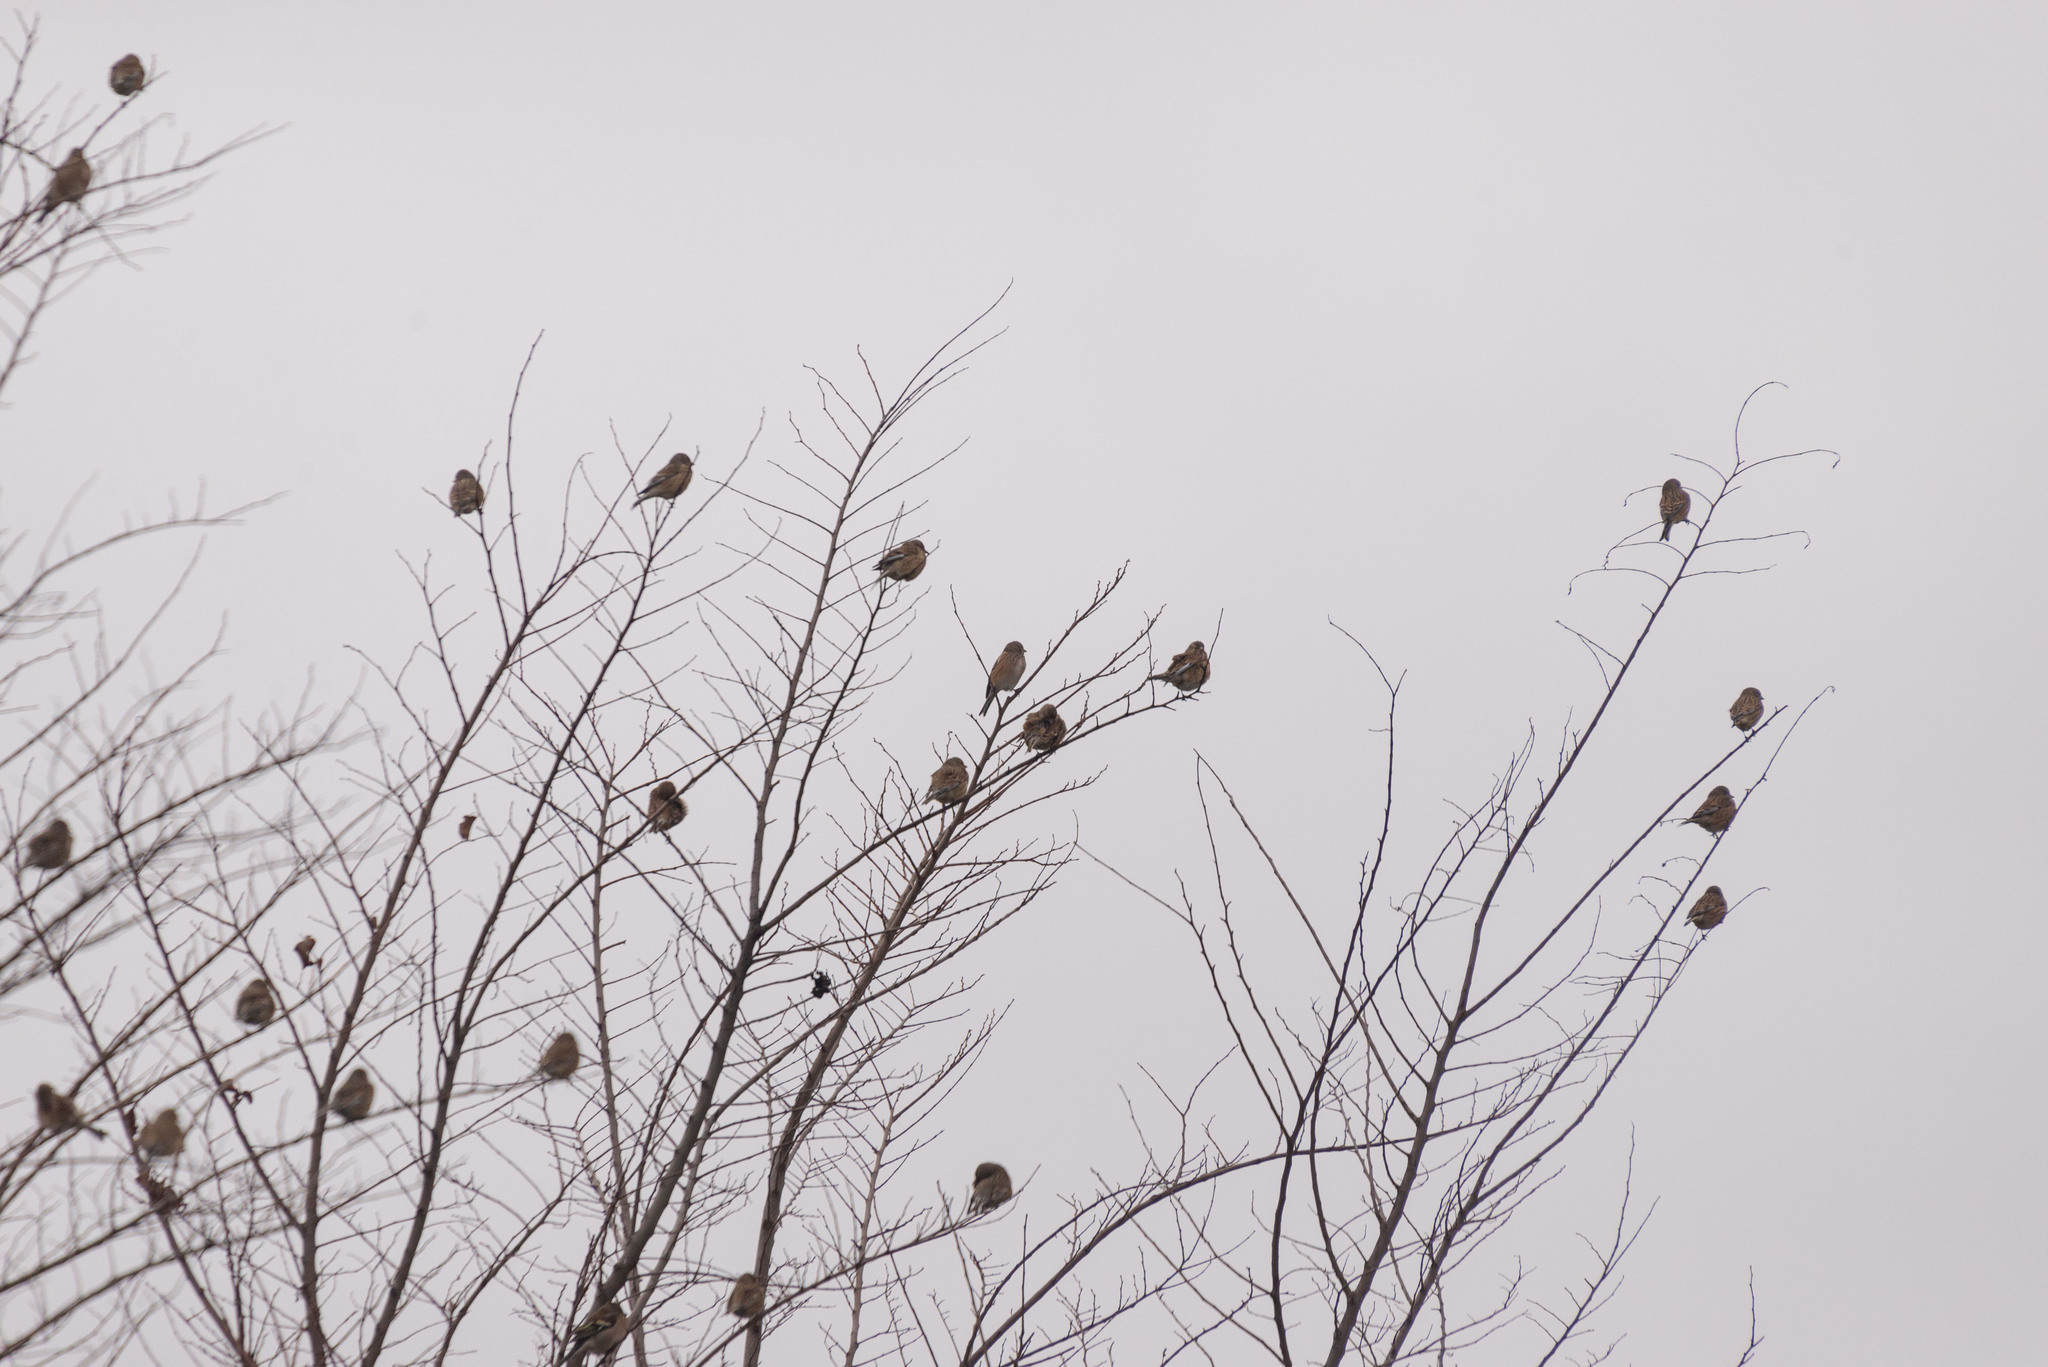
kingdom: Animalia
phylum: Chordata
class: Aves
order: Passeriformes
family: Fringillidae
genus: Linaria
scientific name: Linaria cannabina
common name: Common linnet
